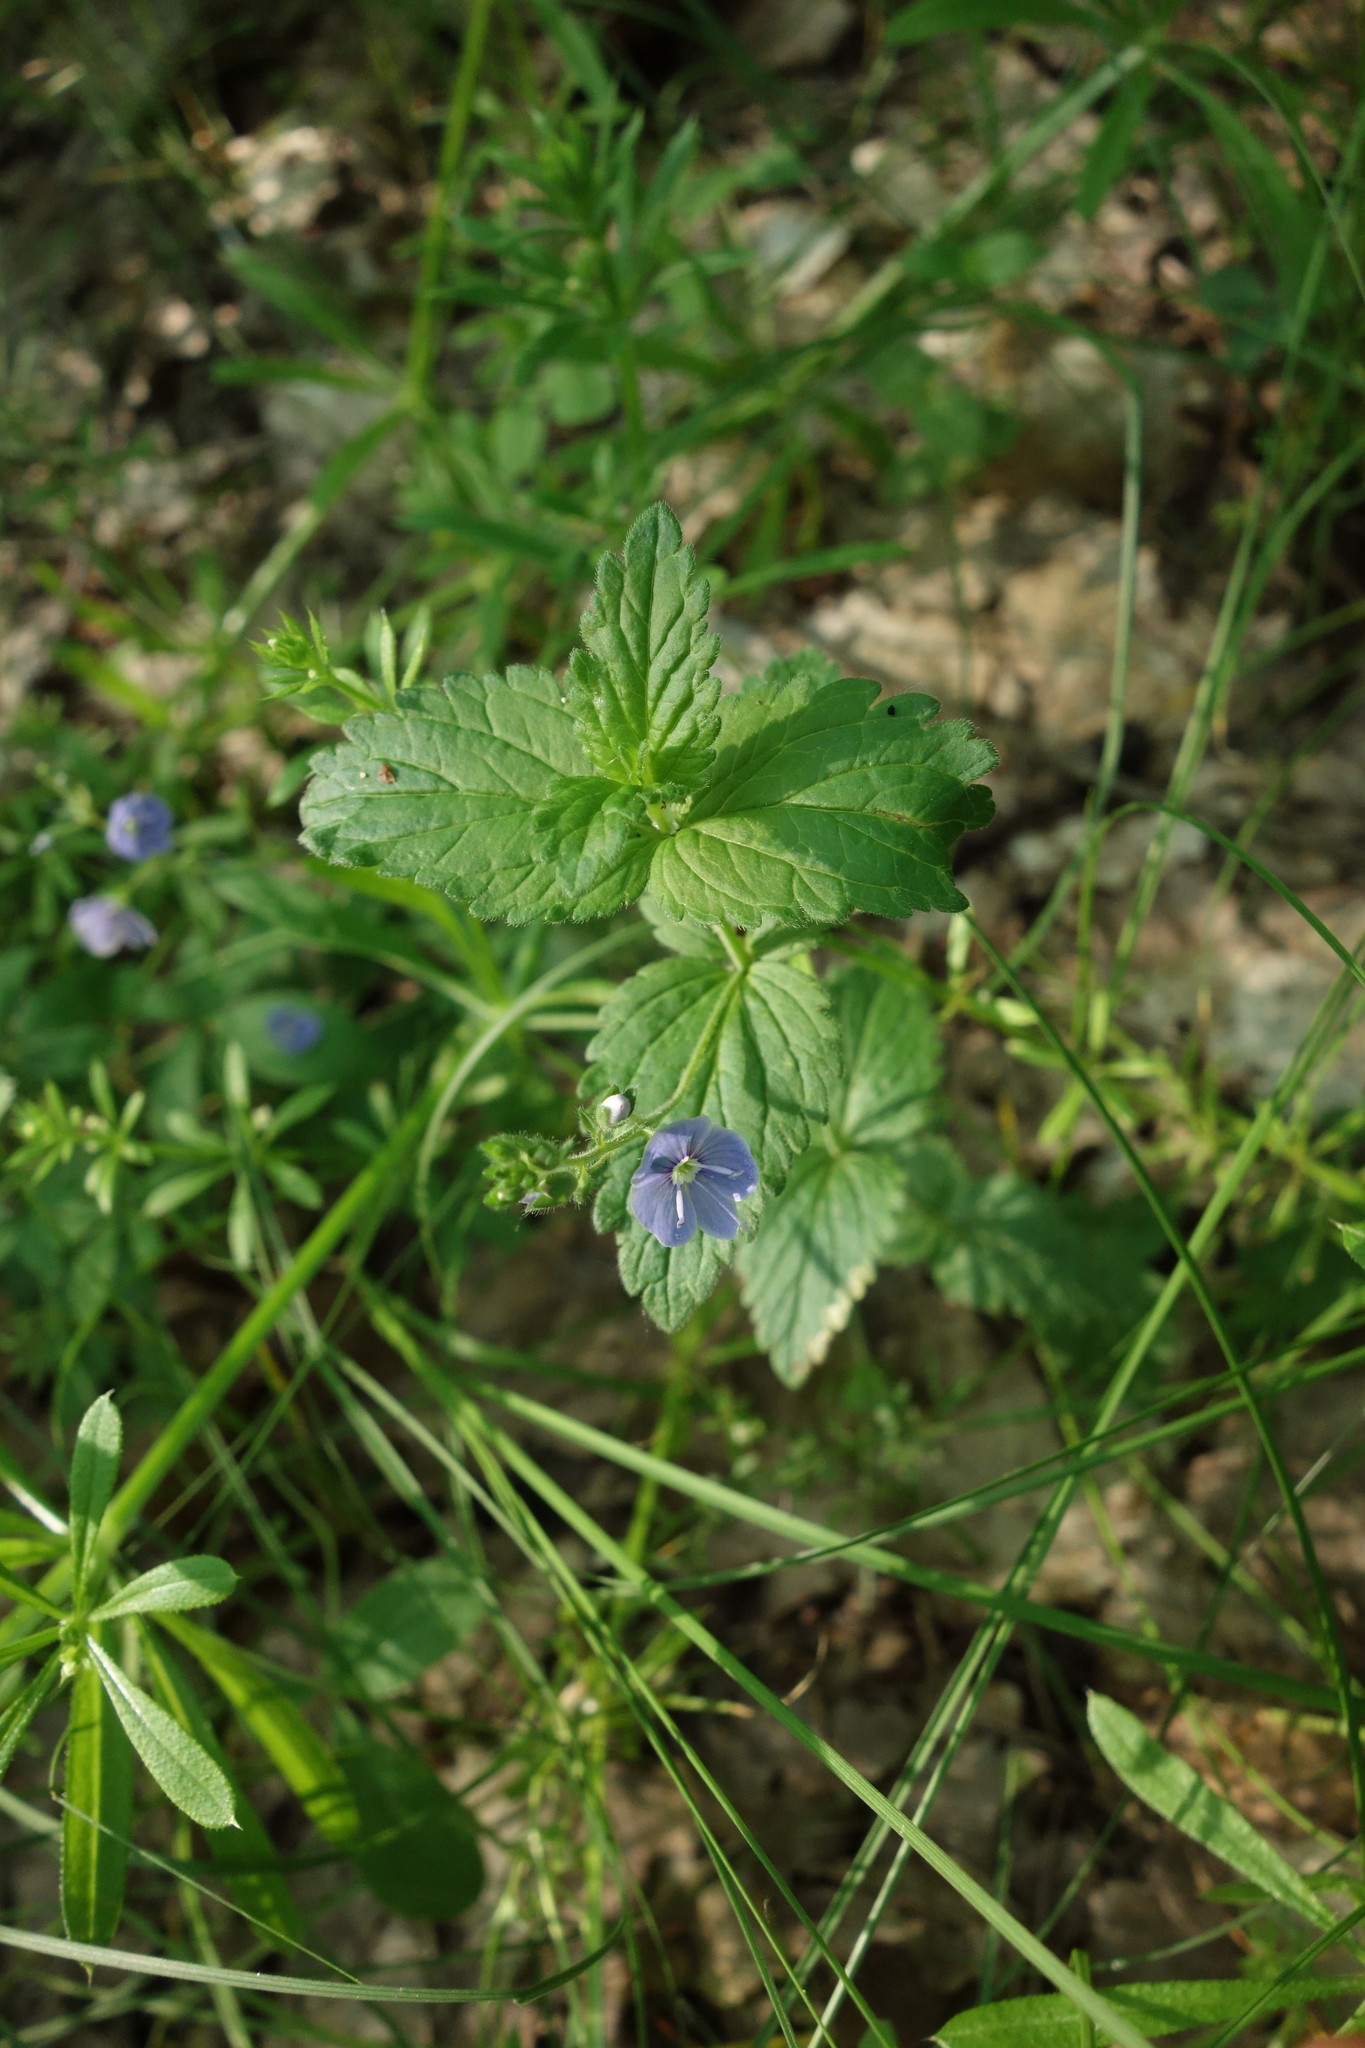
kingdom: Plantae
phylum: Tracheophyta
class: Magnoliopsida
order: Lamiales
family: Plantaginaceae
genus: Veronica
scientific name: Veronica chamaedrys
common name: Germander speedwell
